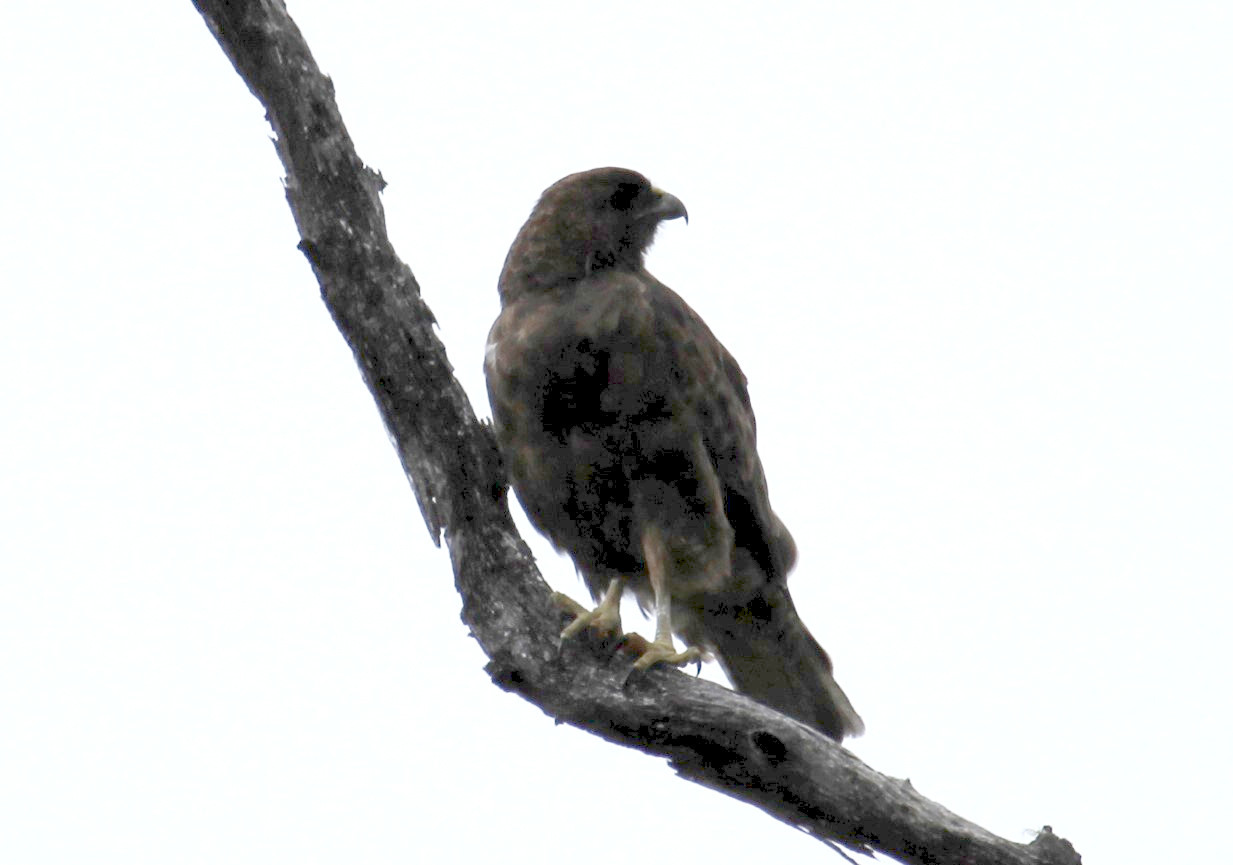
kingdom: Animalia
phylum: Chordata
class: Aves
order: Accipitriformes
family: Accipitridae
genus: Buteo
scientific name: Buteo solitarius
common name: Hawaiian hawk
